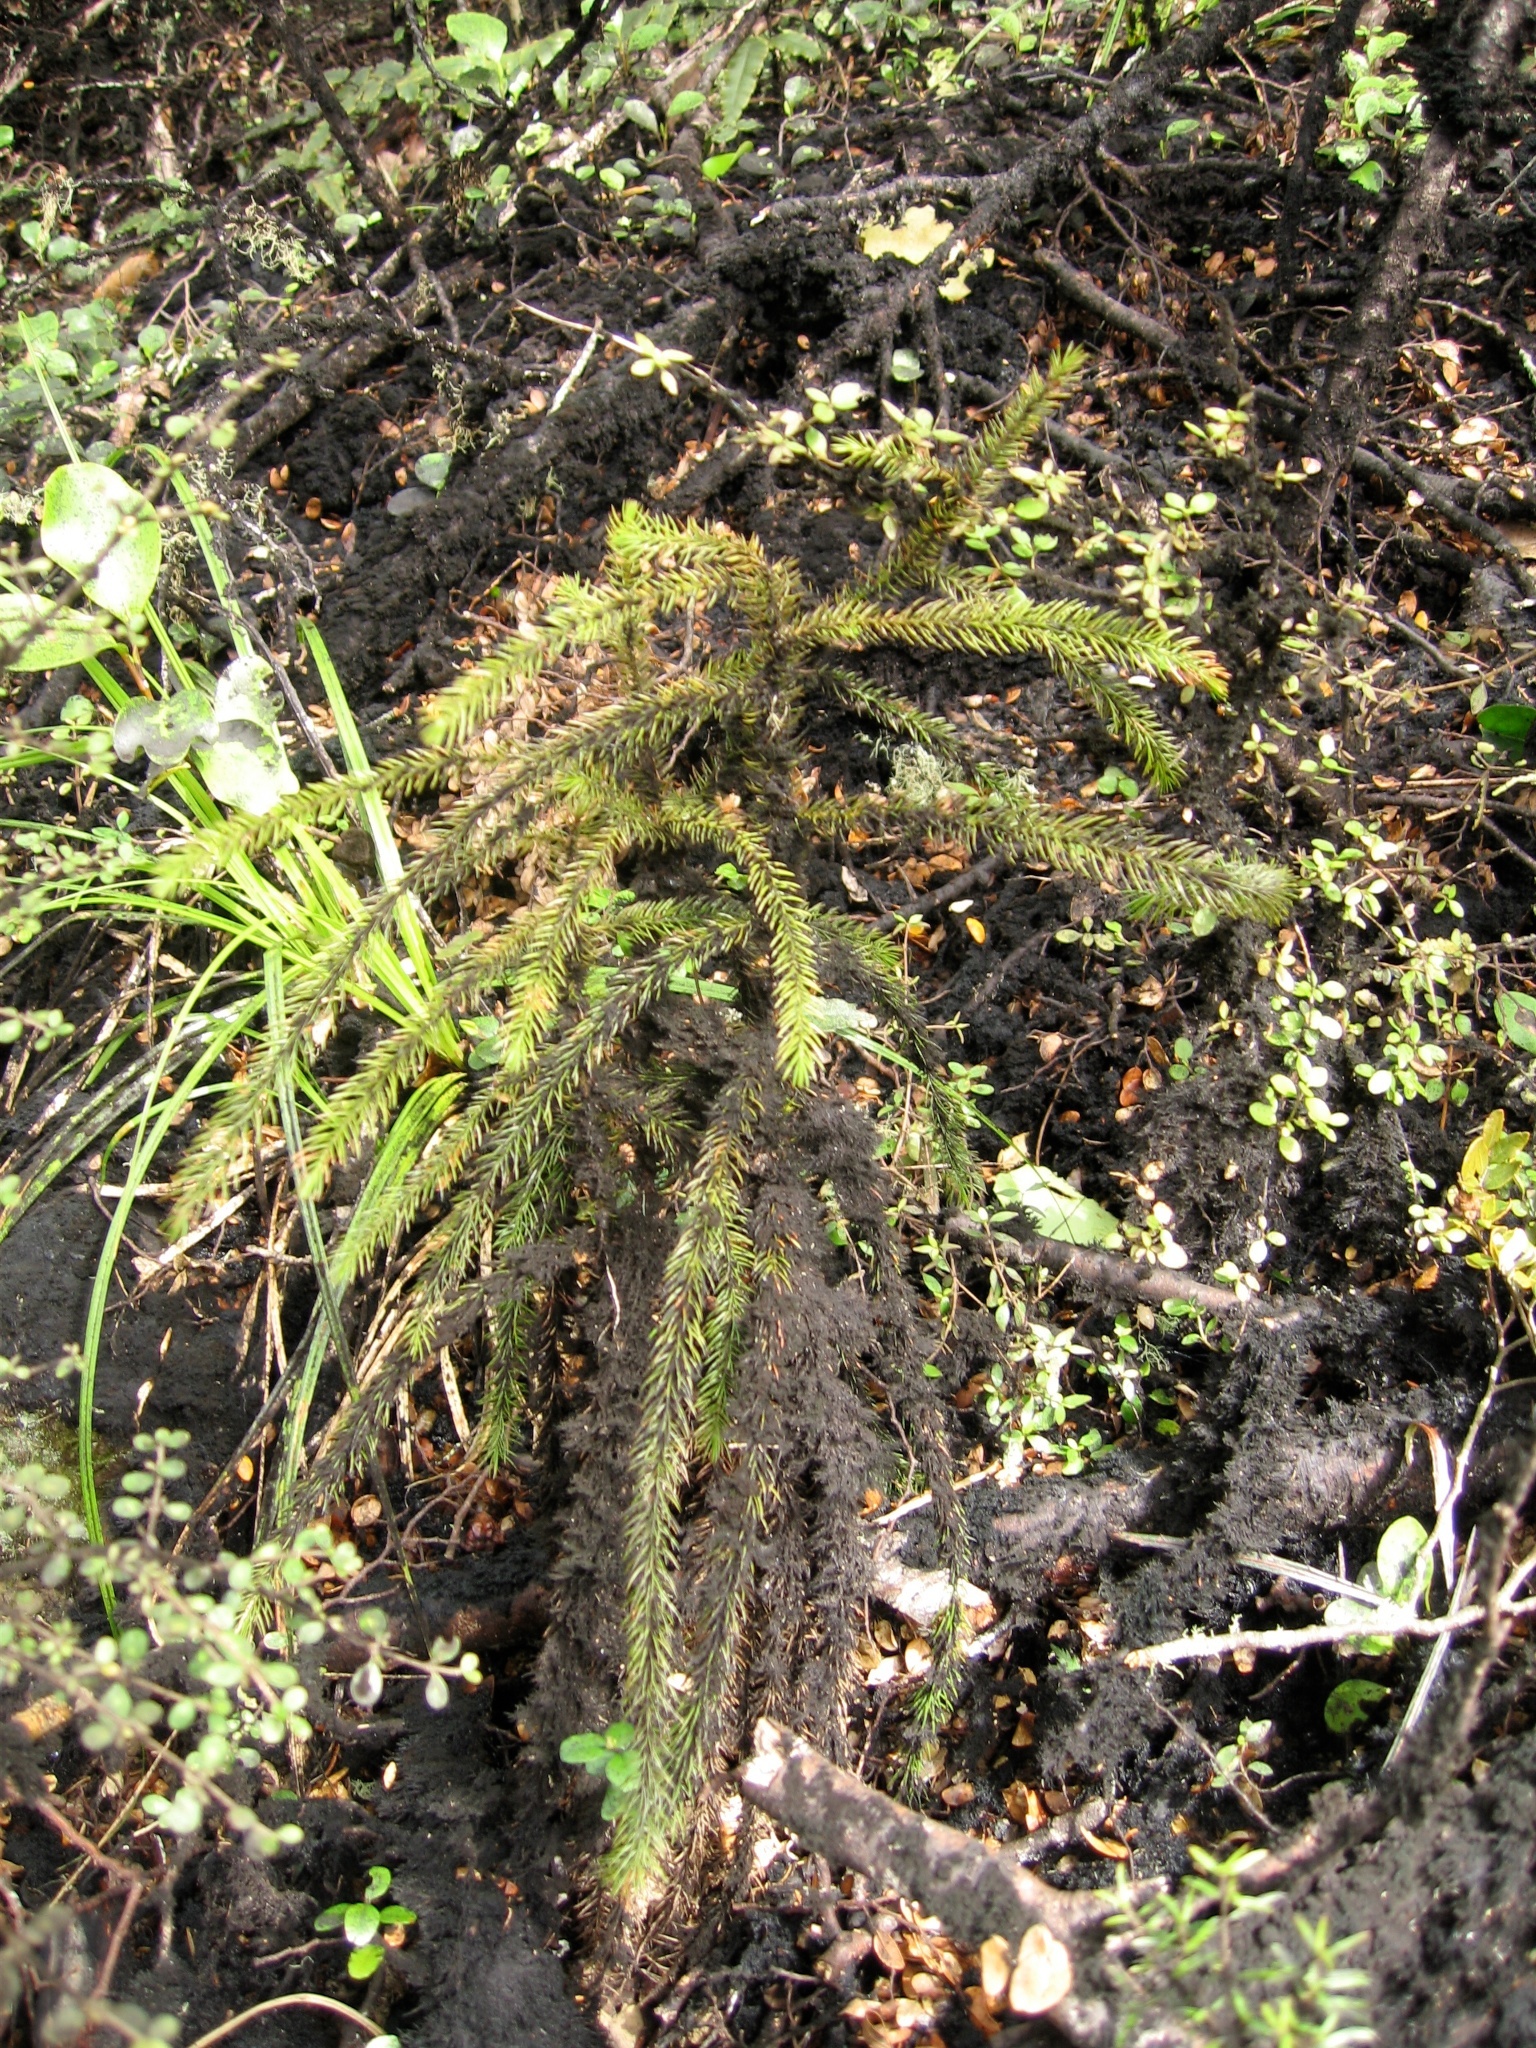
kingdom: Plantae
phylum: Tracheophyta
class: Pinopsida
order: Pinales
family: Podocarpaceae
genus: Dacrydium
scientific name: Dacrydium cupressinum
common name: Red pine
